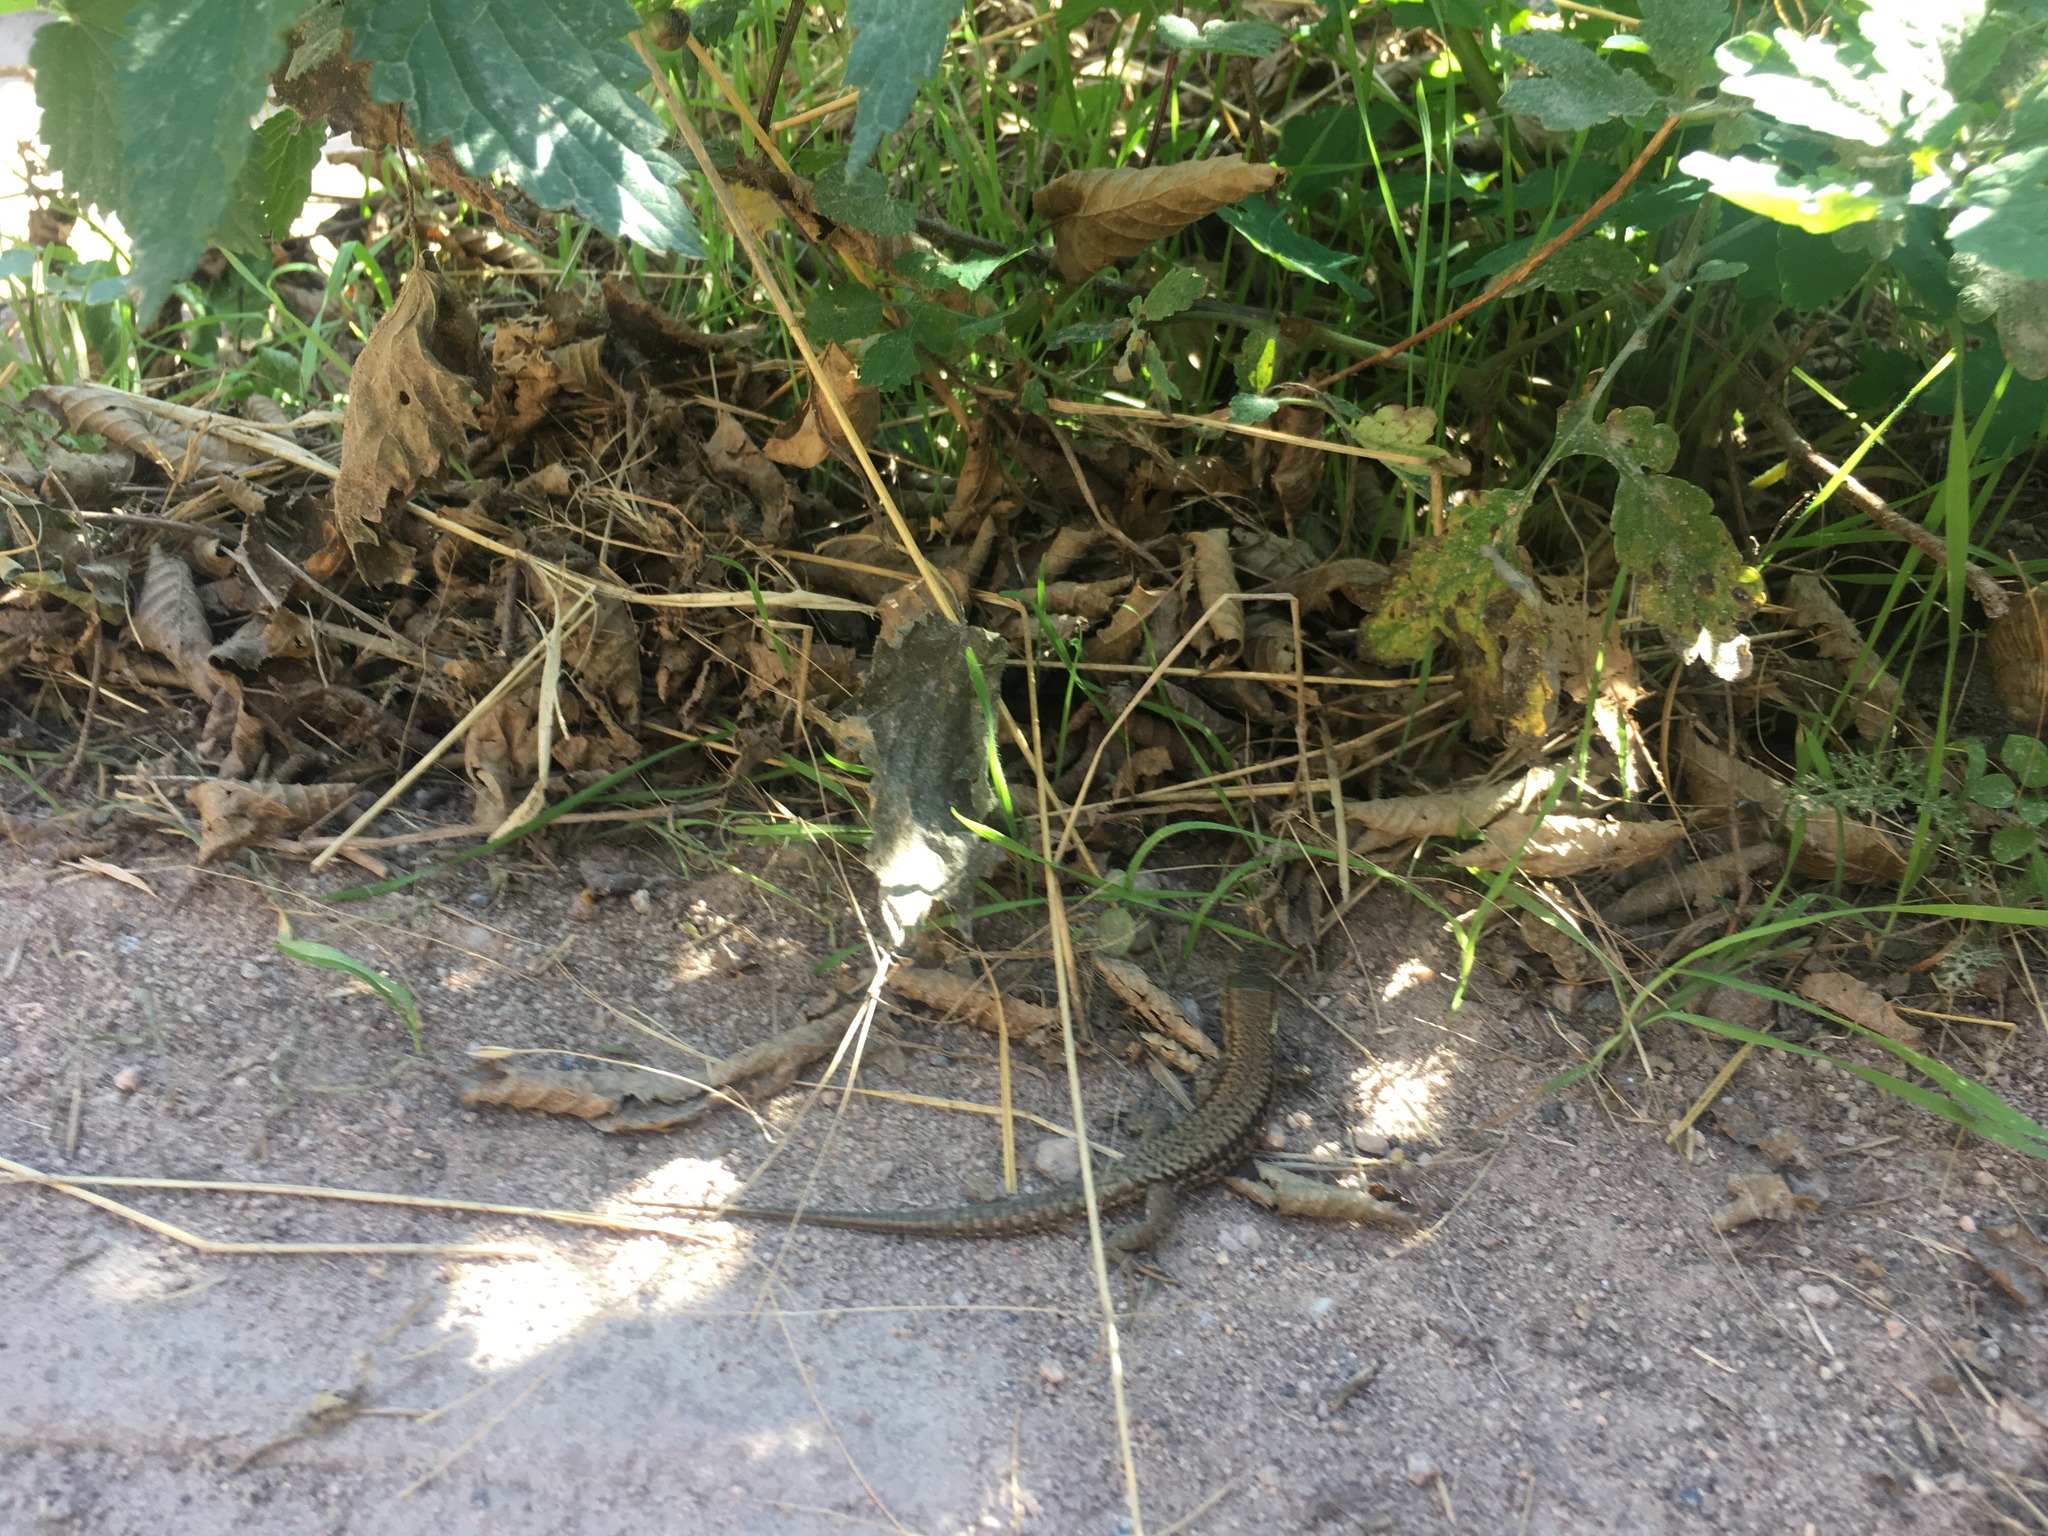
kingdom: Animalia
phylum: Chordata
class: Squamata
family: Lacertidae
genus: Podarcis
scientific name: Podarcis muralis
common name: Common wall lizard
